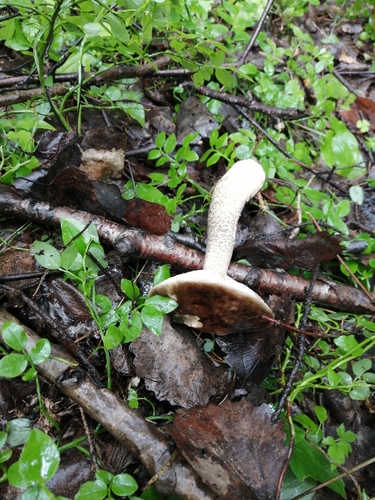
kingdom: Fungi
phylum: Basidiomycota
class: Agaricomycetes
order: Boletales
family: Boletaceae
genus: Leccinum
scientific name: Leccinum
